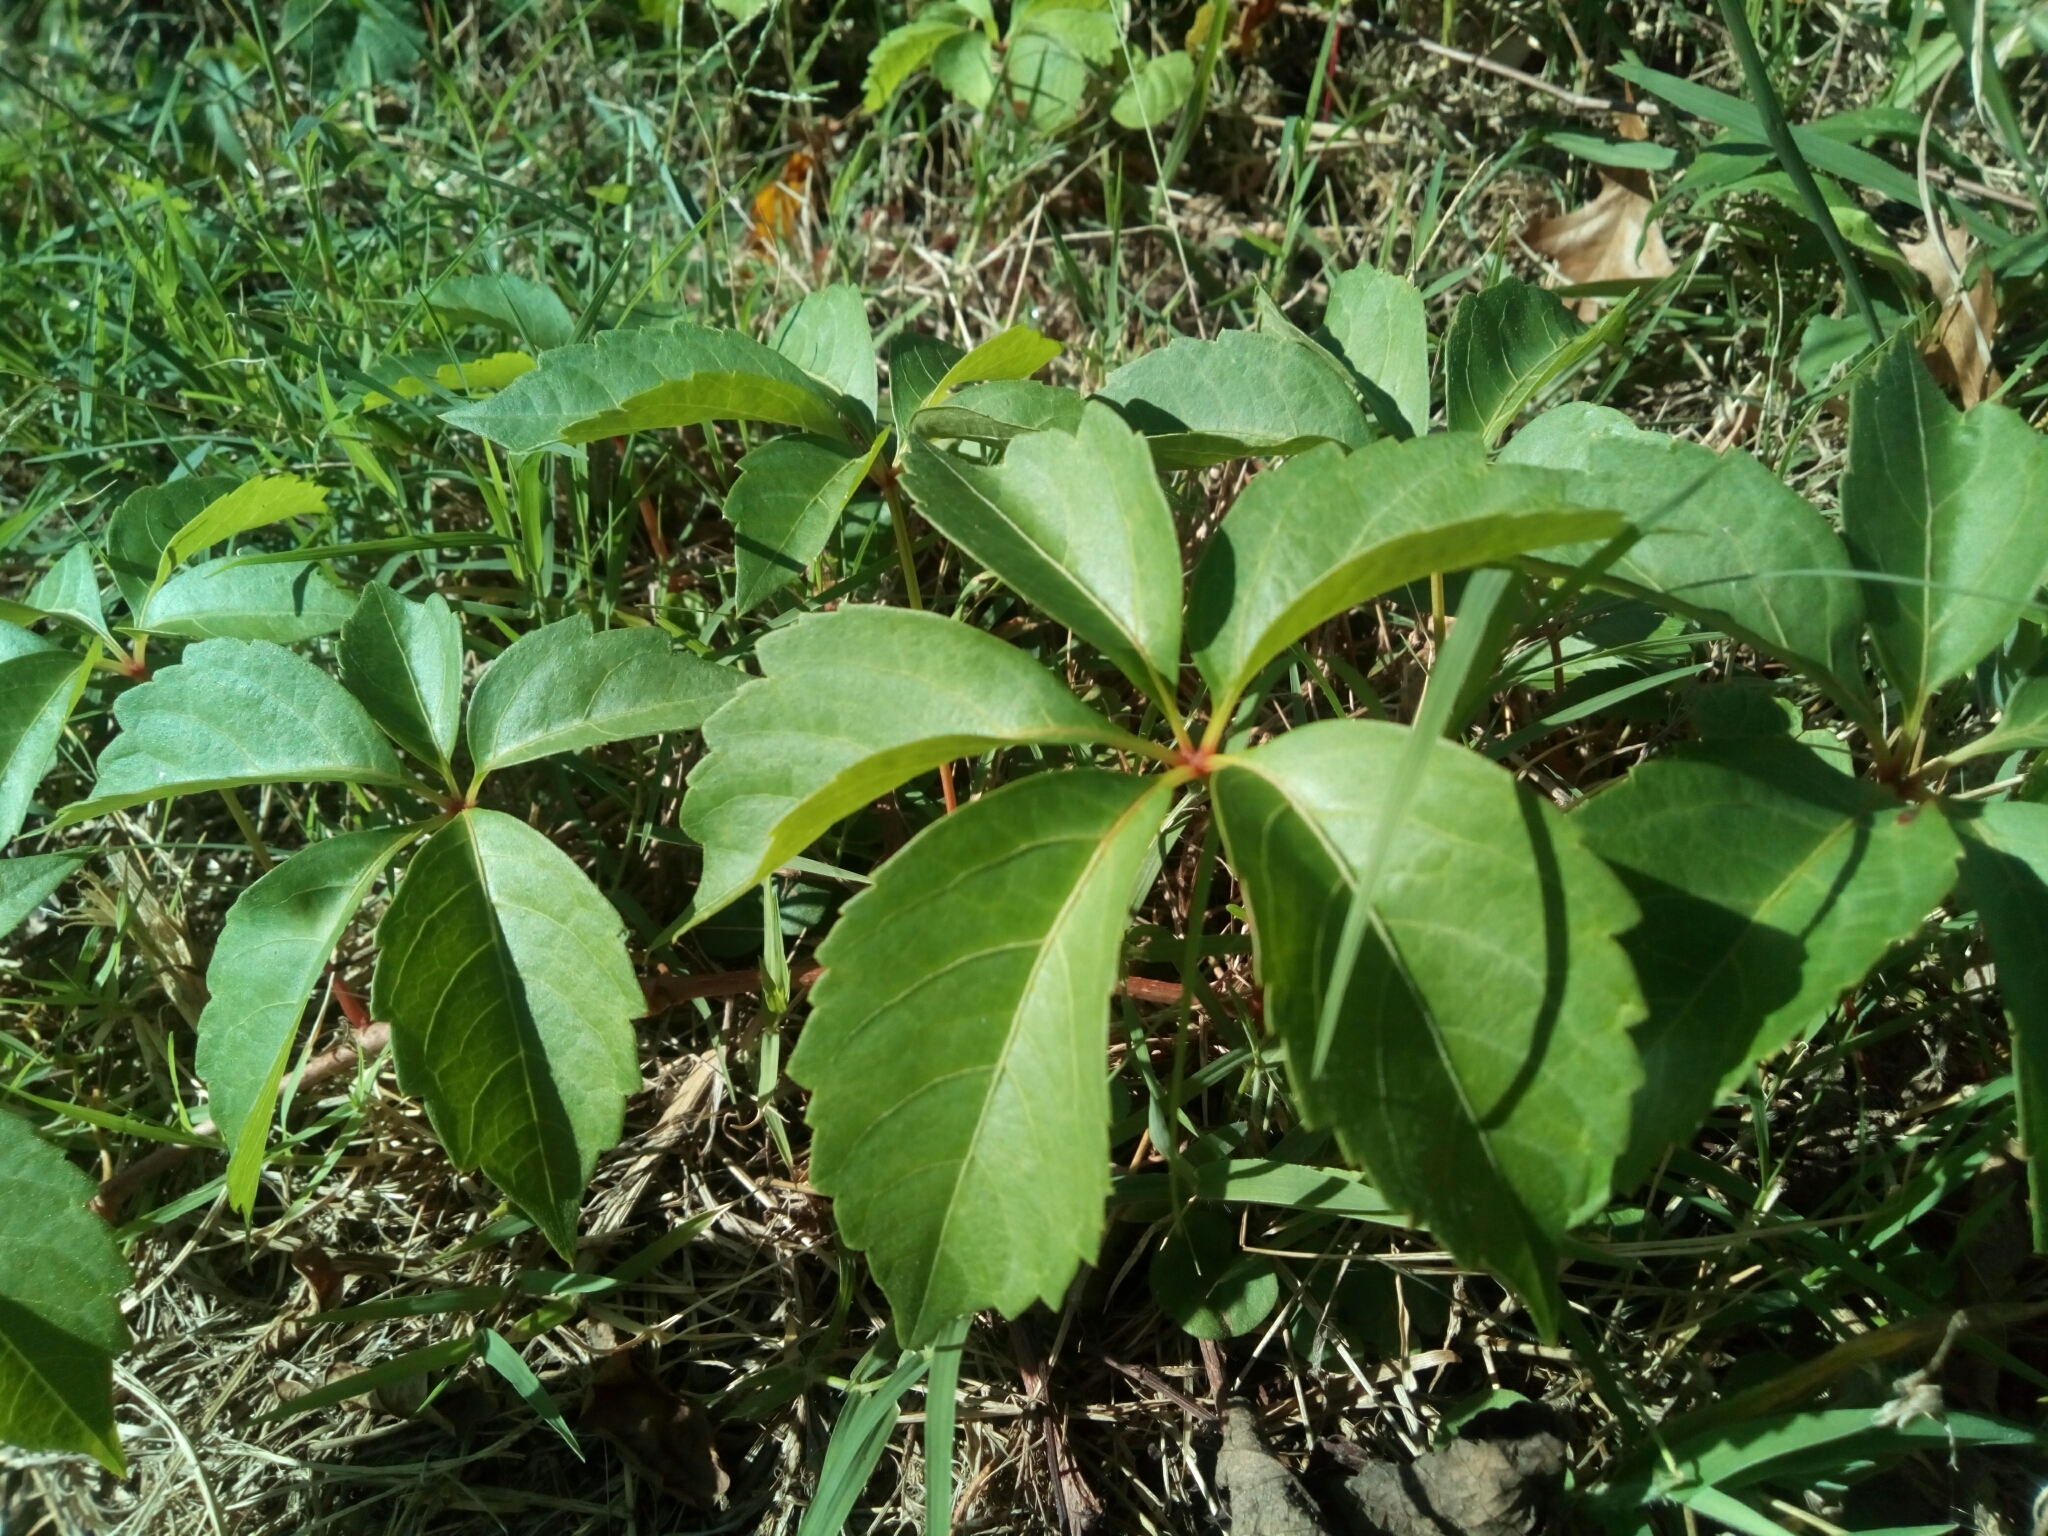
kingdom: Plantae
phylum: Tracheophyta
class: Magnoliopsida
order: Vitales
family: Vitaceae
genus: Parthenocissus
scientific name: Parthenocissus quinquefolia
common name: Virginia-creeper
